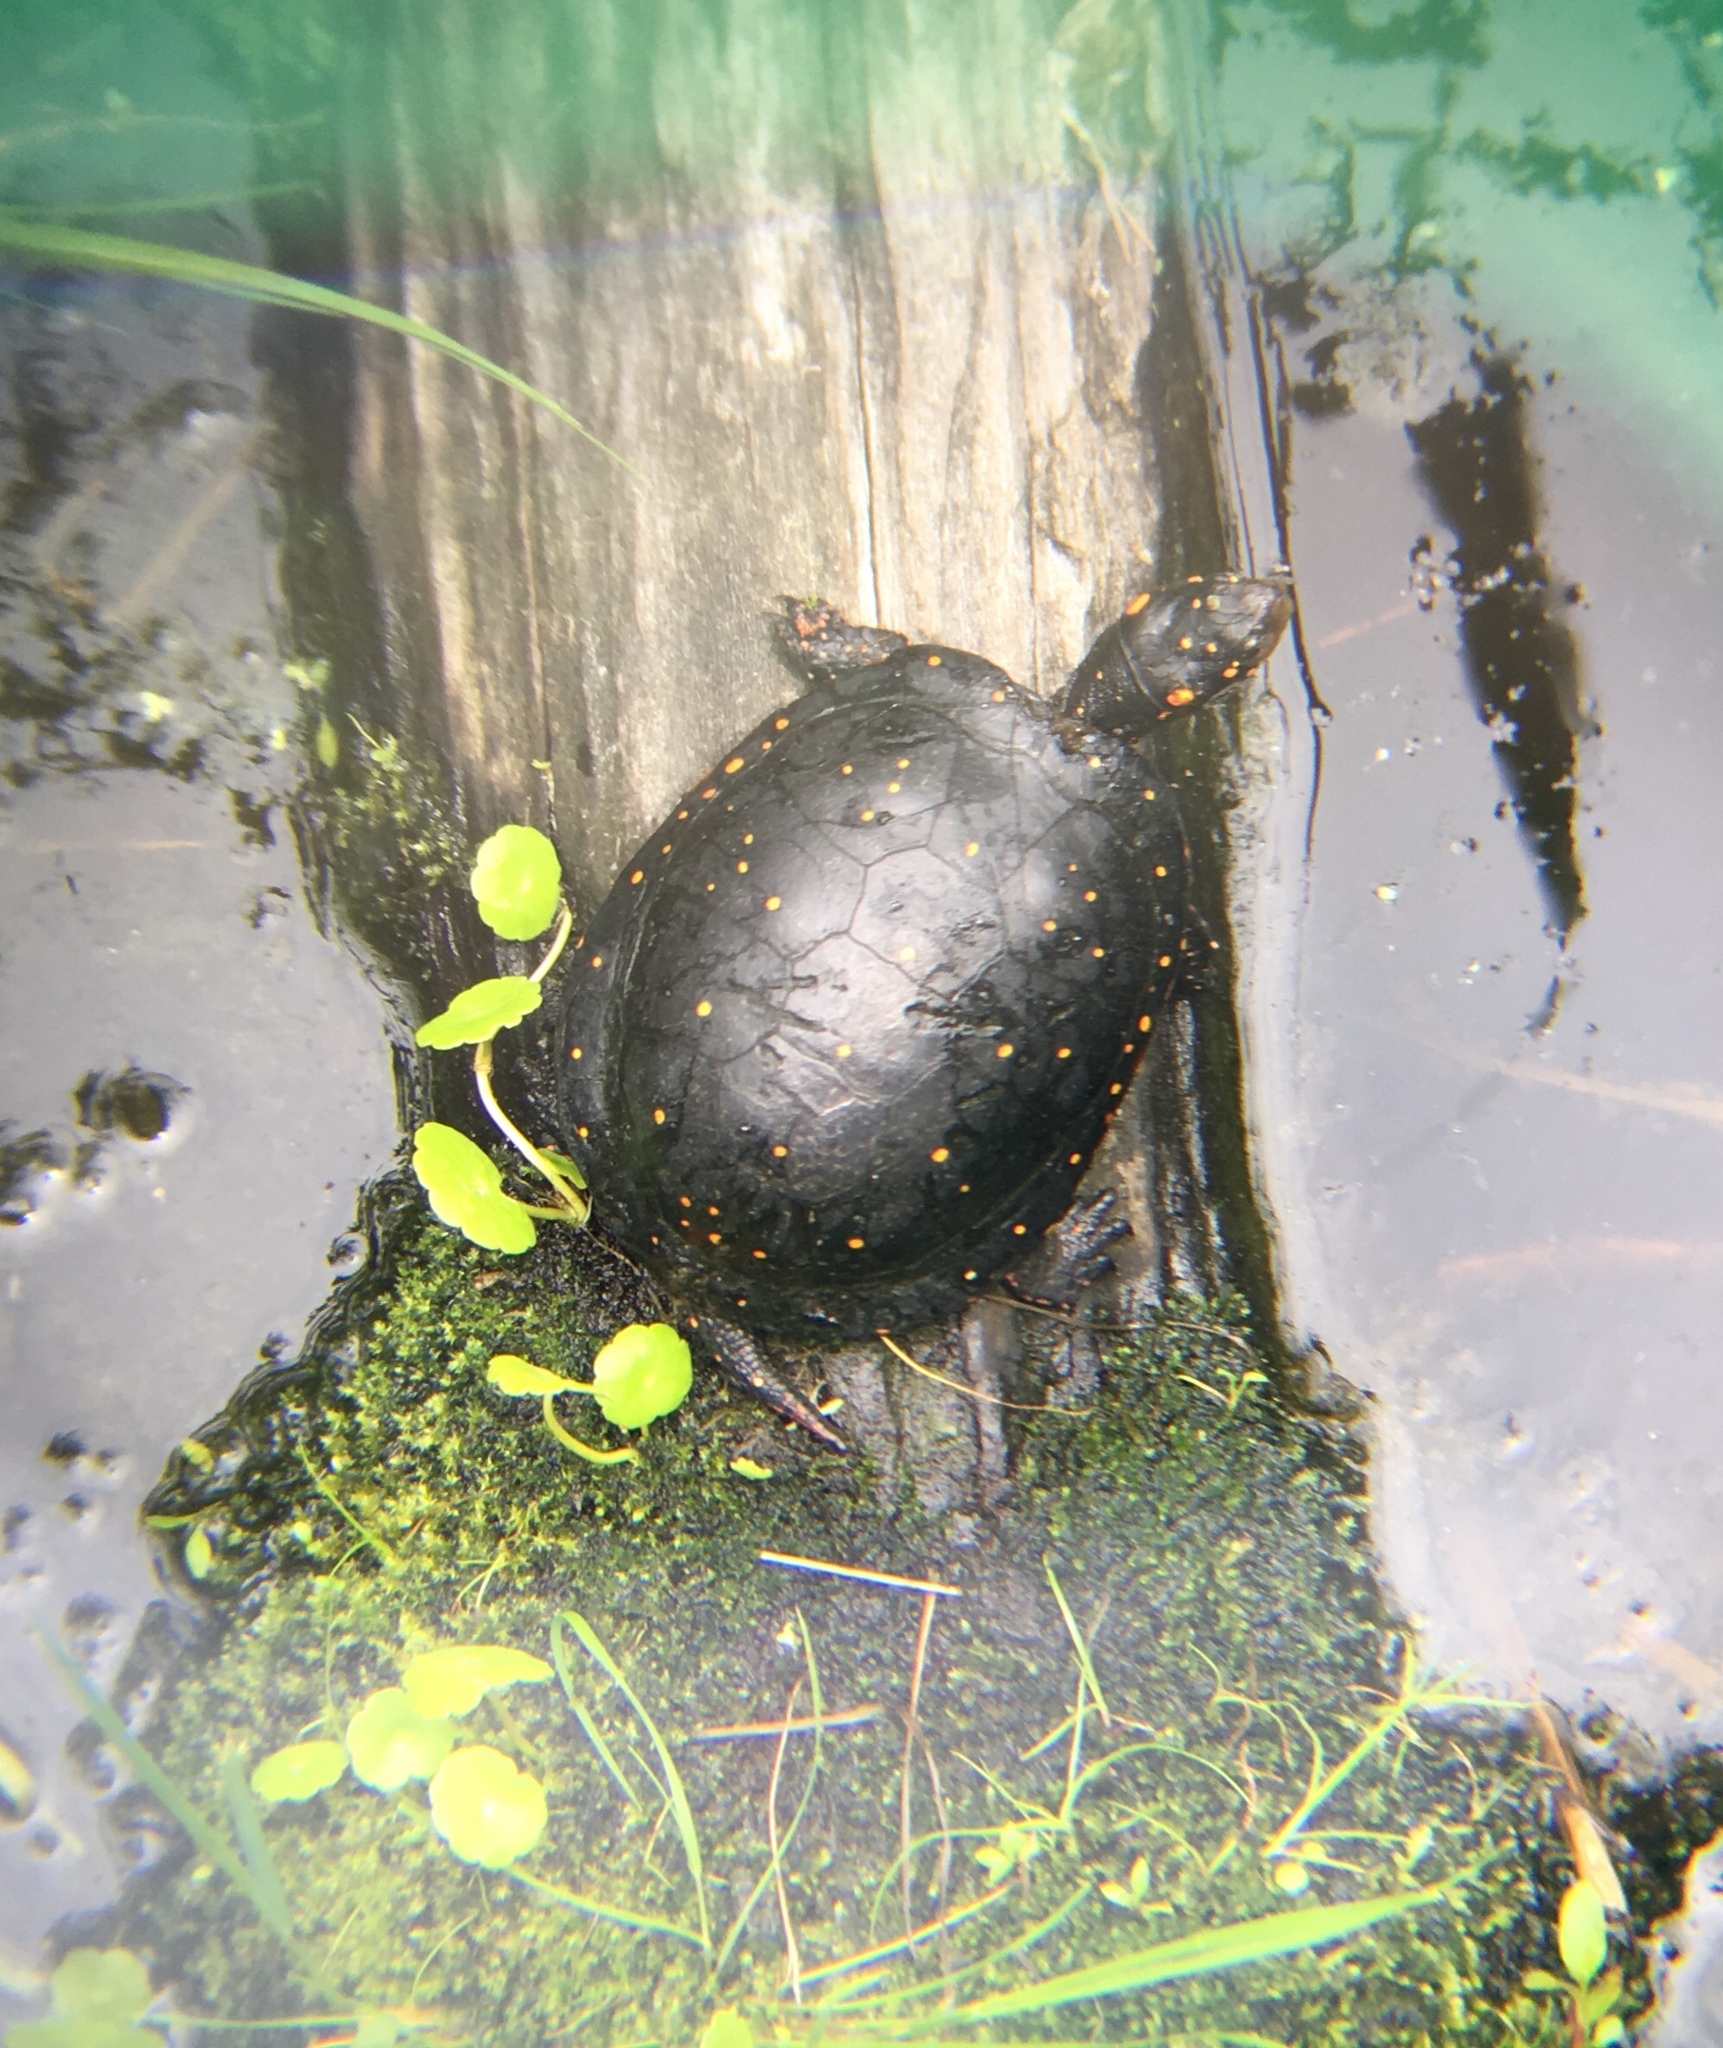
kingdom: Animalia
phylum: Chordata
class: Testudines
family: Emydidae
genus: Clemmys
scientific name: Clemmys guttata
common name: Spotted turtle
